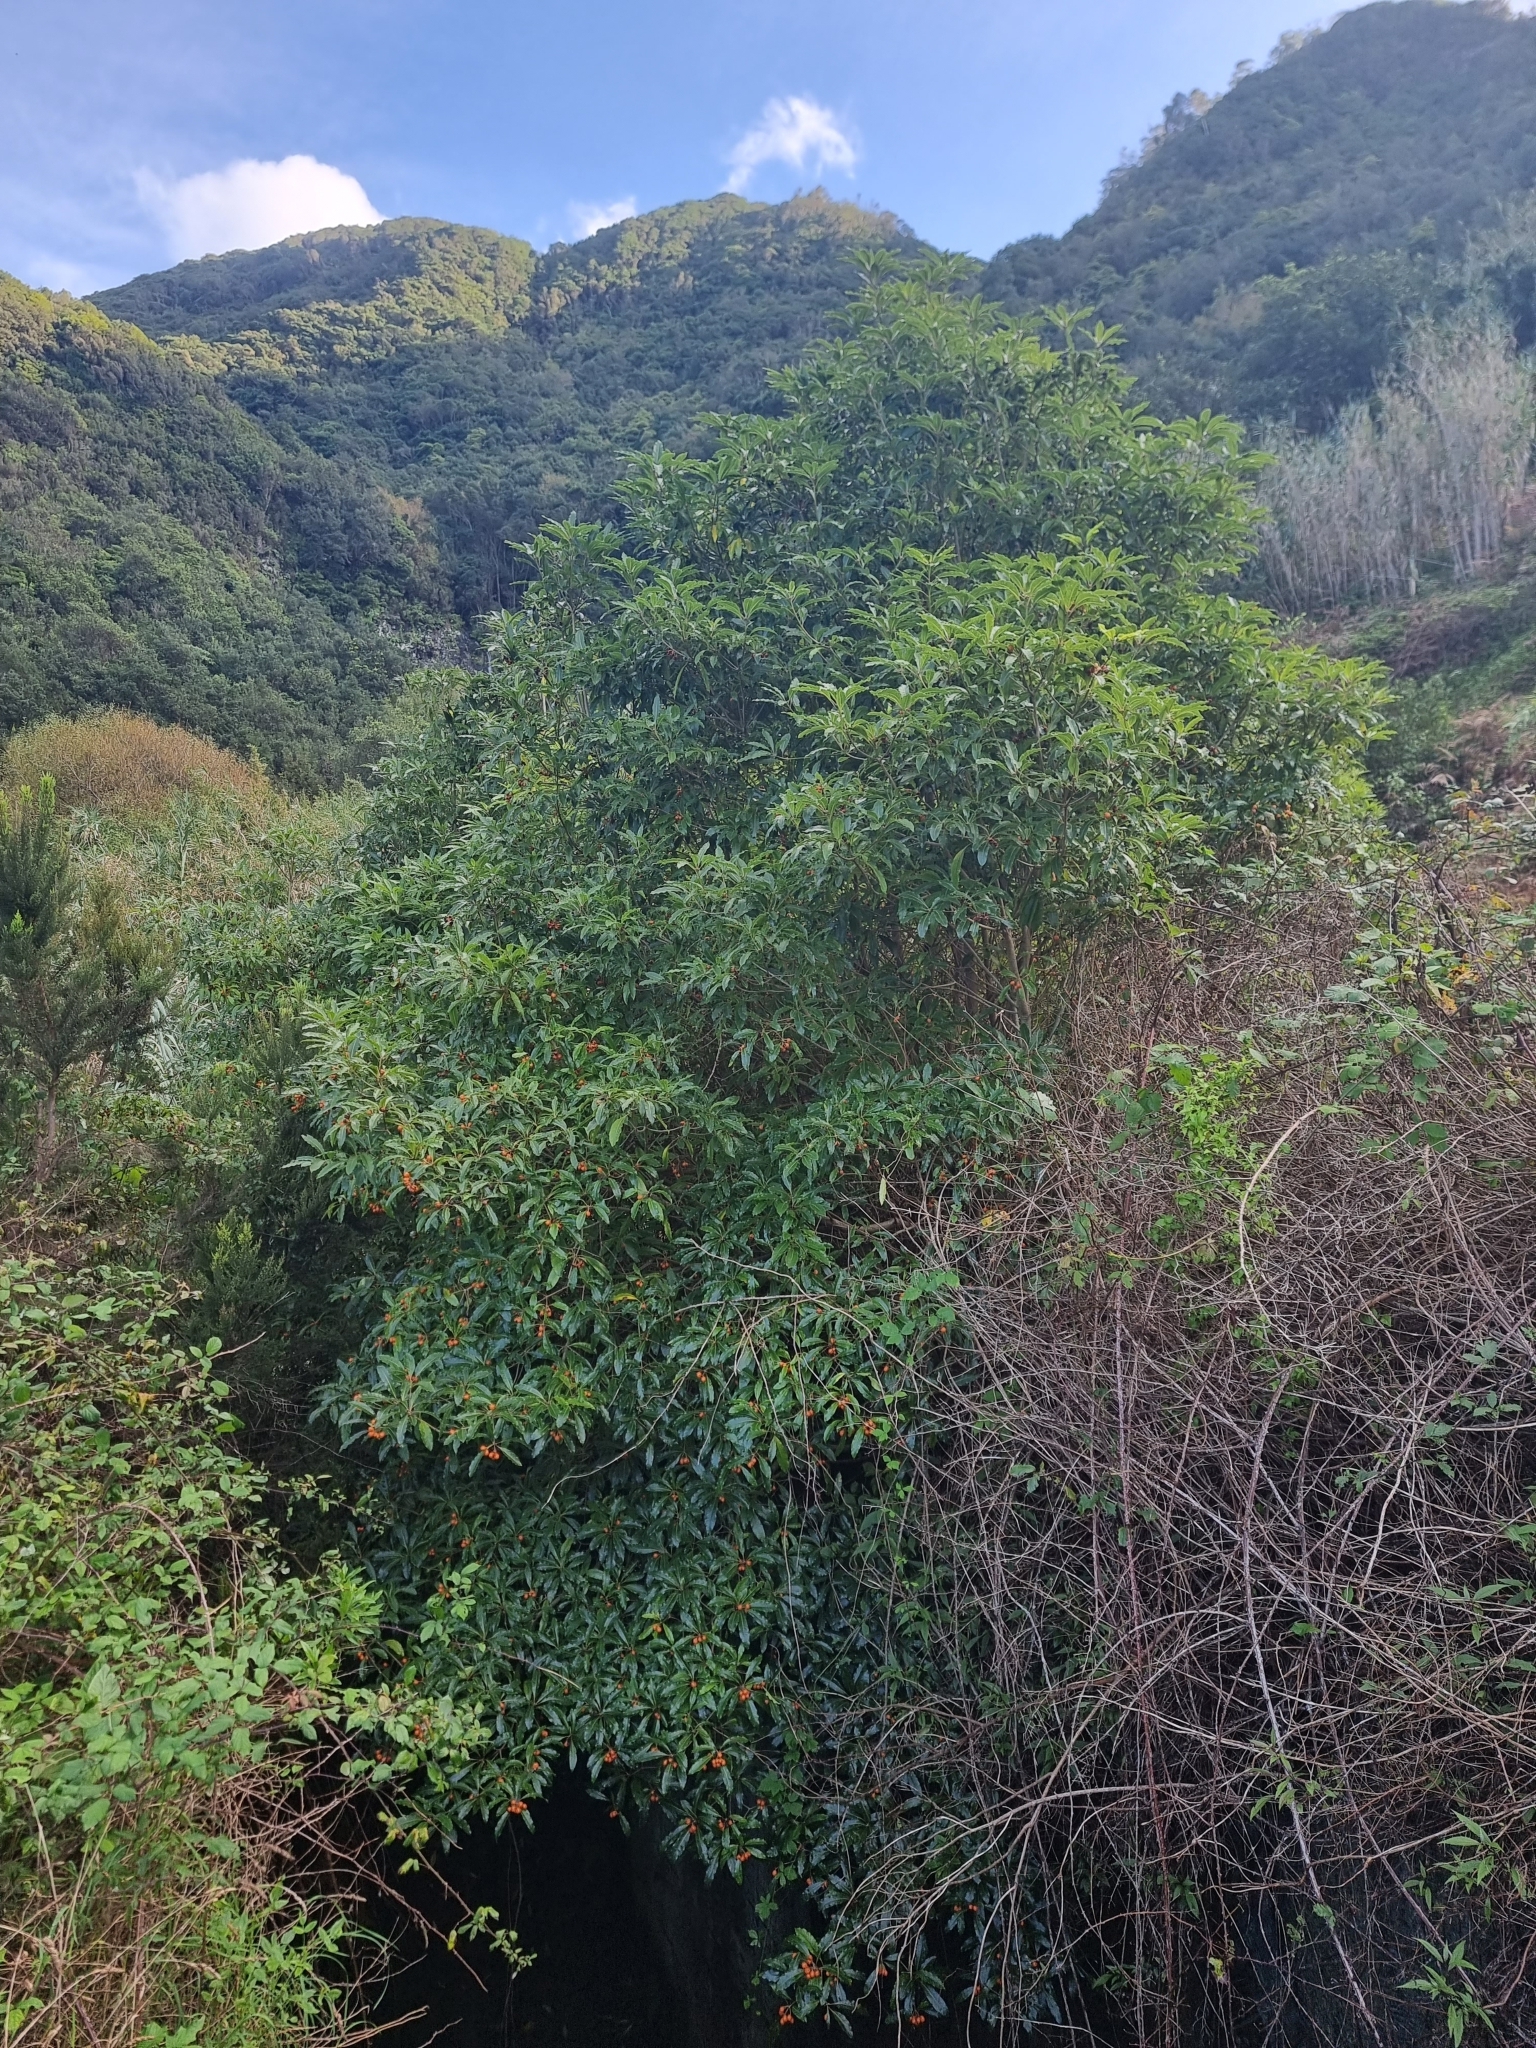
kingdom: Plantae
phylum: Tracheophyta
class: Magnoliopsida
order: Apiales
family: Pittosporaceae
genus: Pittosporum
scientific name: Pittosporum undulatum
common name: Australian cheesewood
